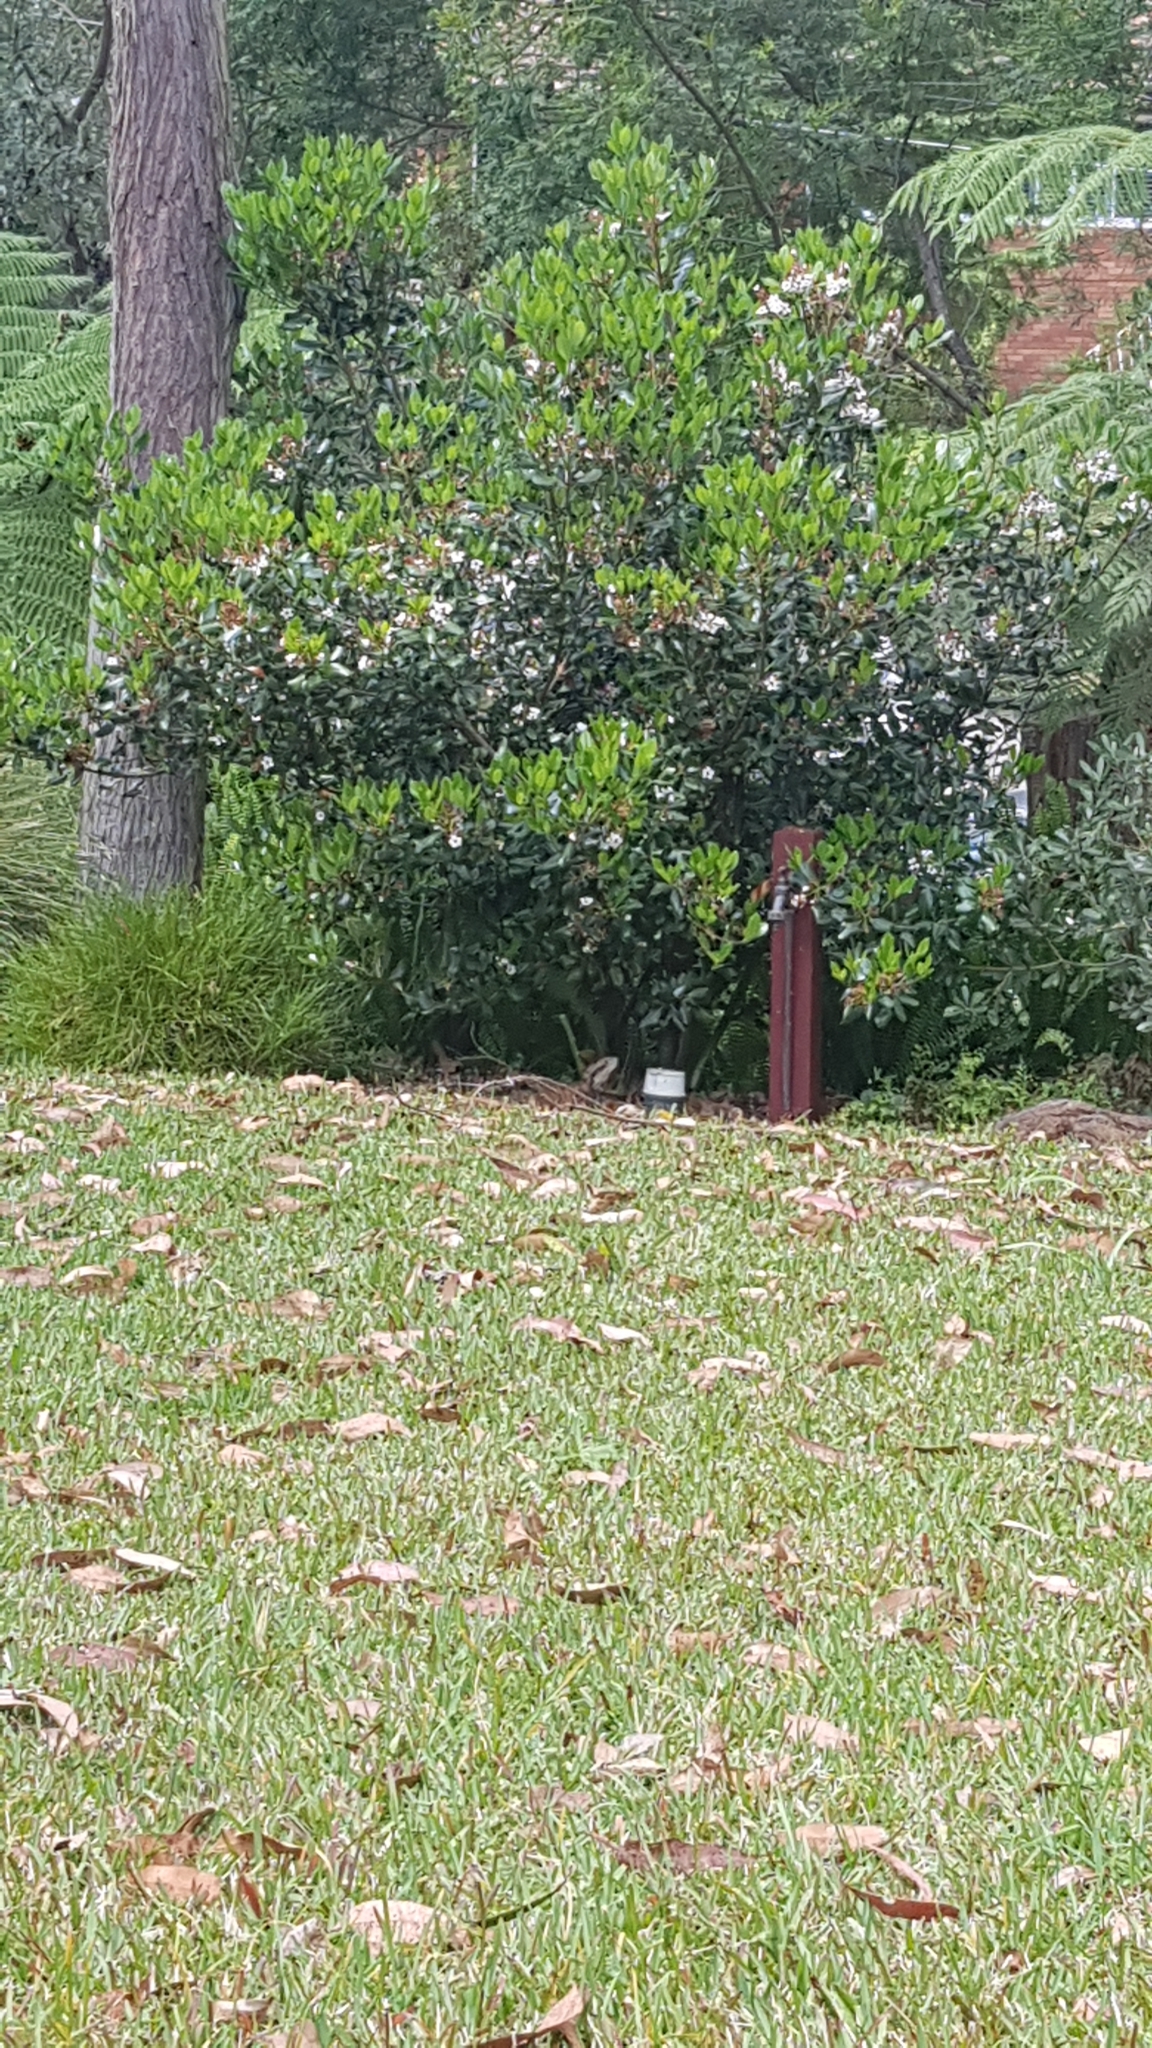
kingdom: Animalia
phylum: Chordata
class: Squamata
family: Agamidae
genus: Intellagama
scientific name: Intellagama lesueurii
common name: Eastern water dragon
